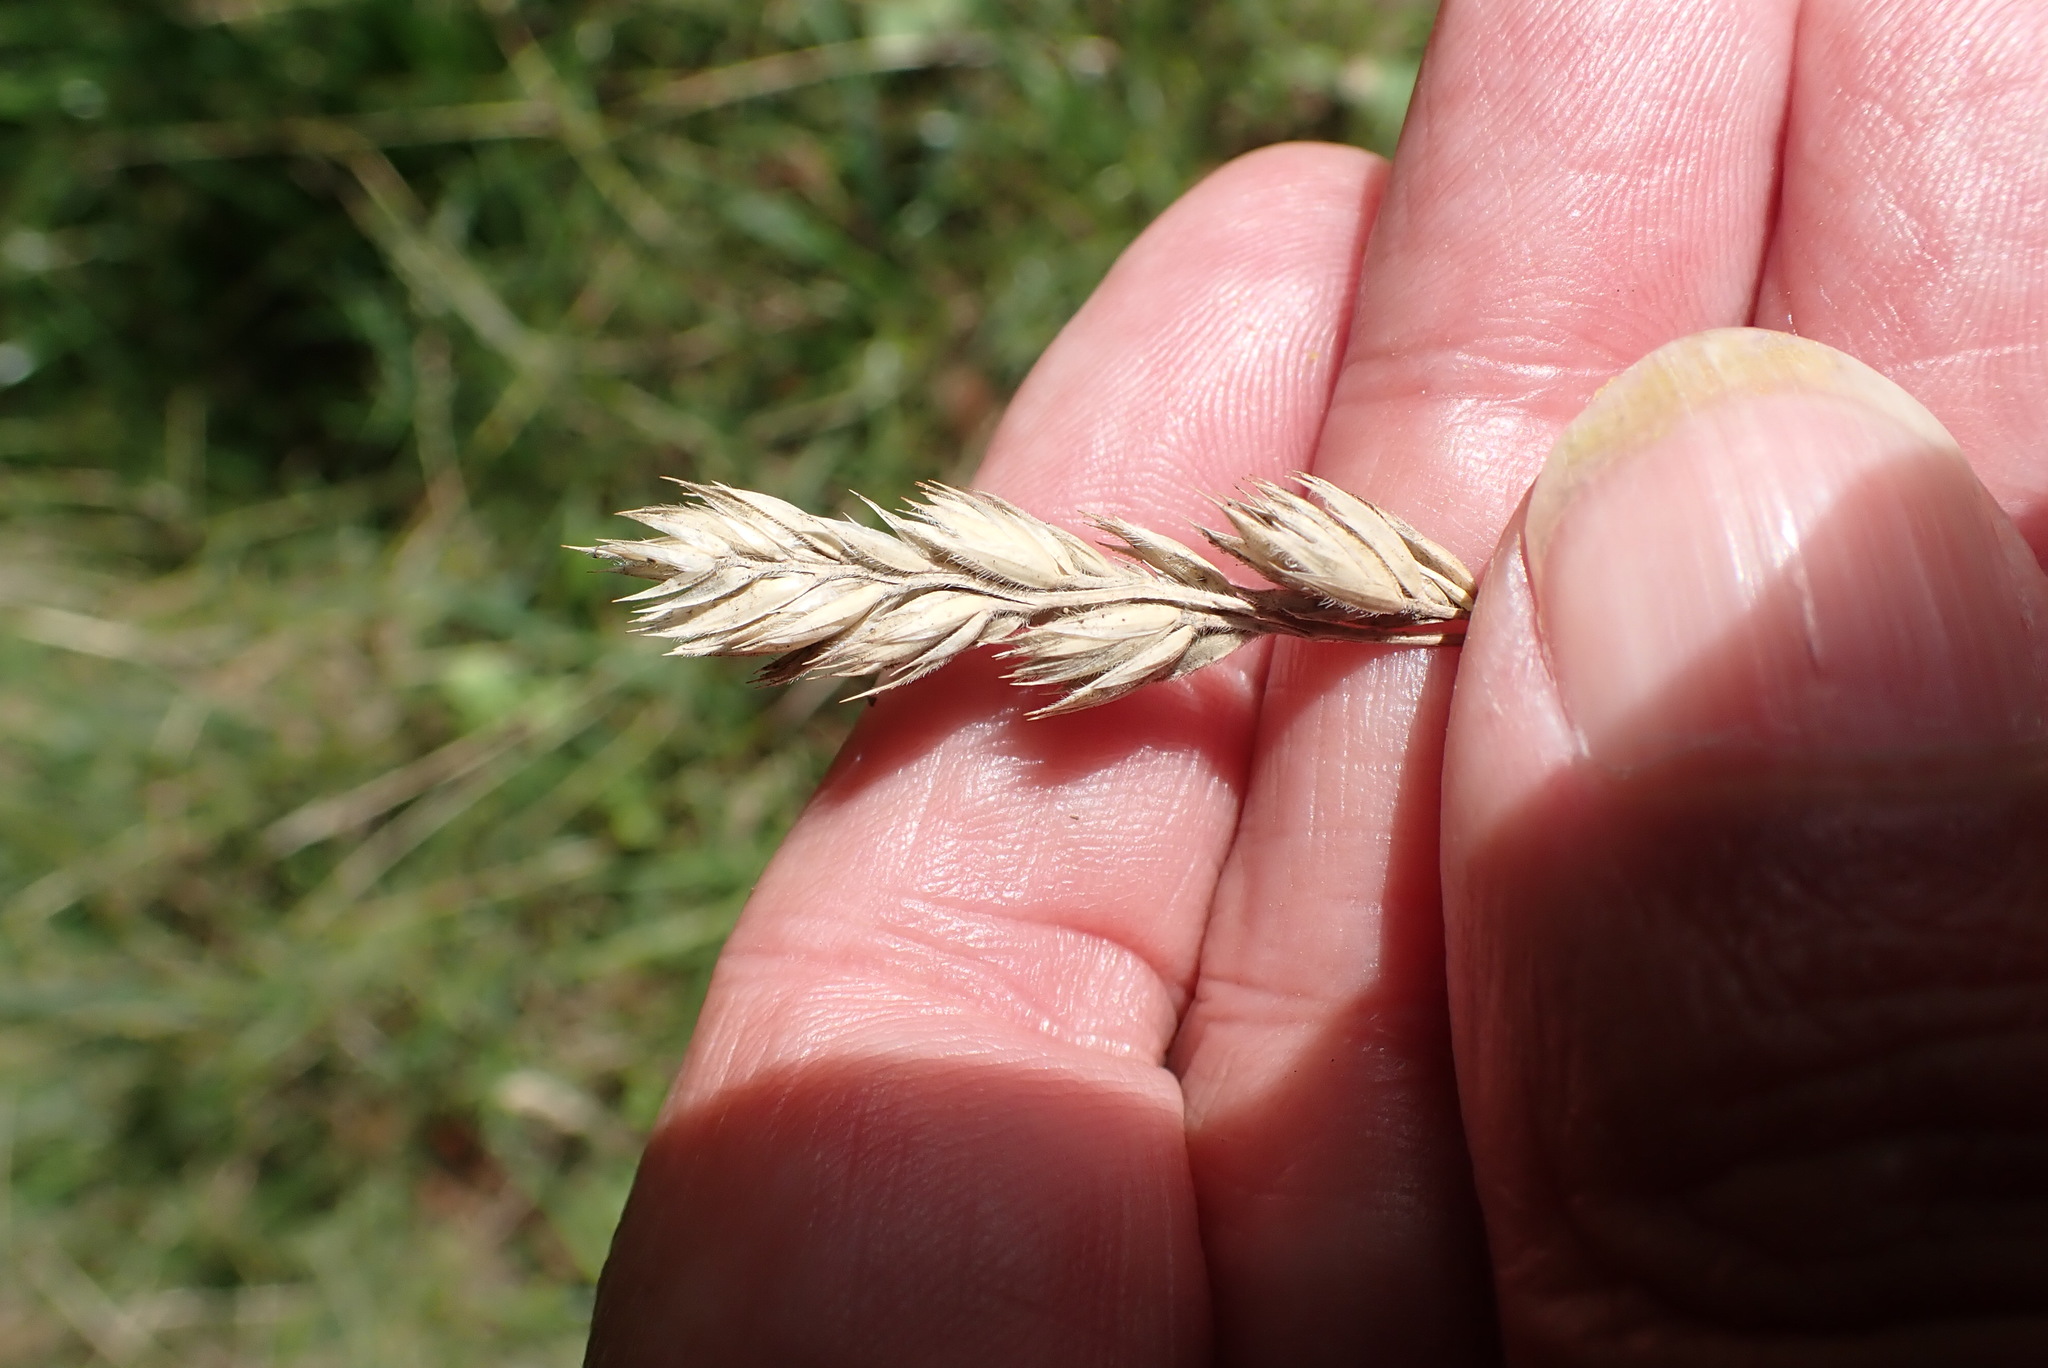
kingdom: Plantae
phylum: Tracheophyta
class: Liliopsida
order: Poales
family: Poaceae
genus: Dactylis
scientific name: Dactylis glomerata
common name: Orchardgrass
